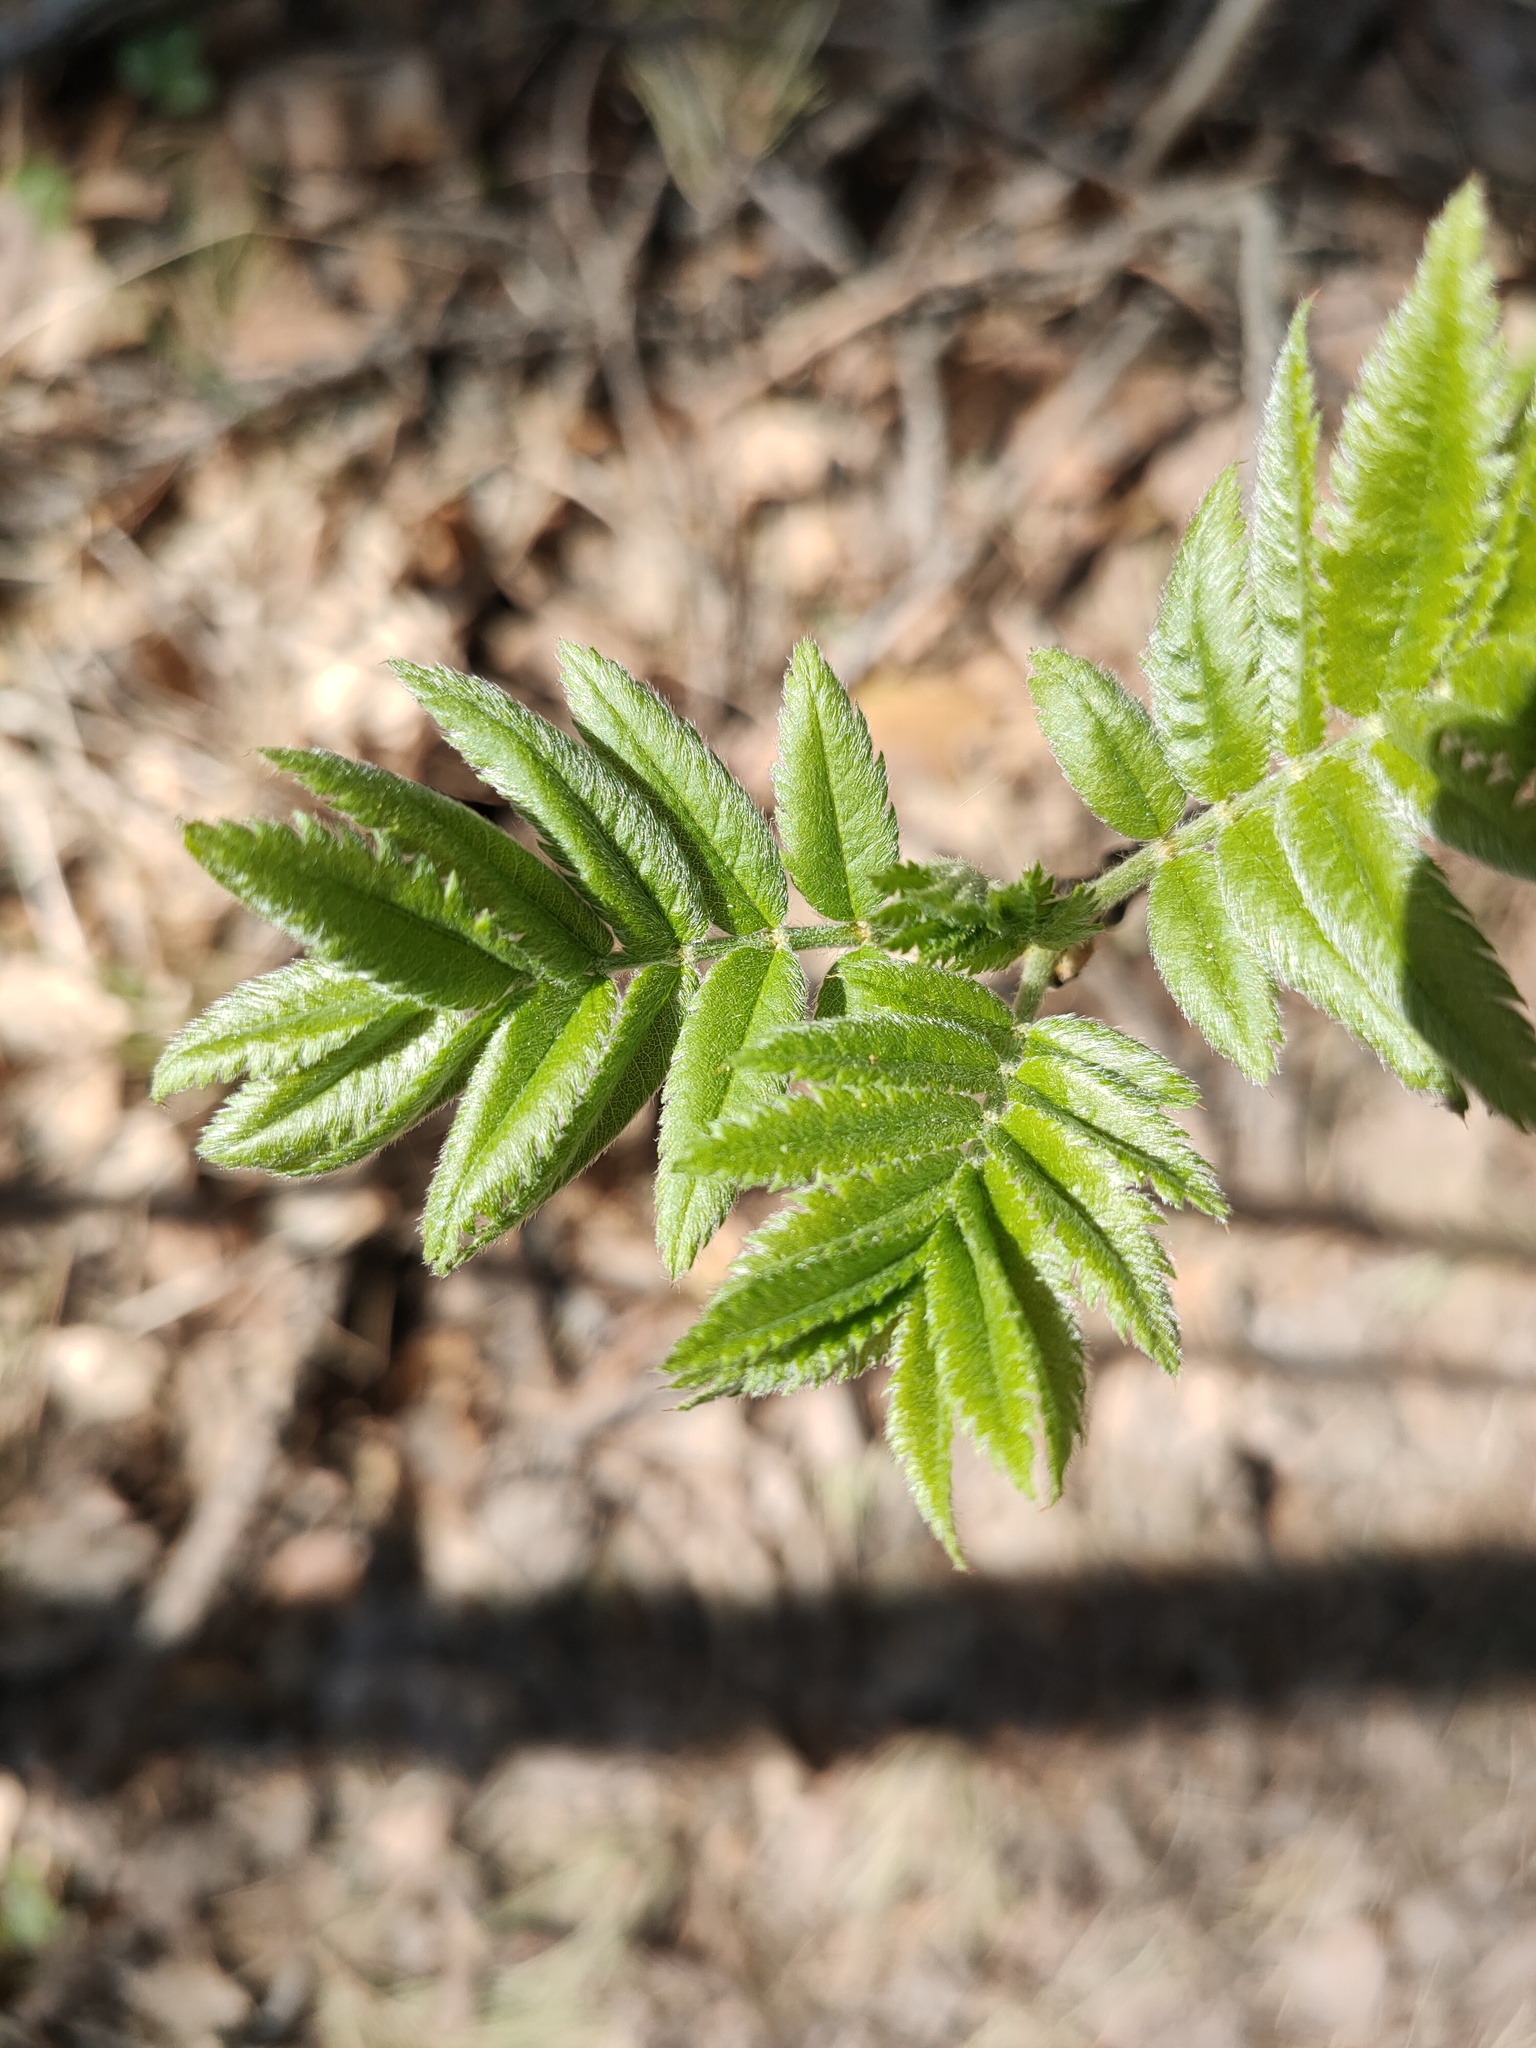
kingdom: Plantae
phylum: Tracheophyta
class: Magnoliopsida
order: Rosales
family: Rosaceae
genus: Sorbus
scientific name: Sorbus aucuparia
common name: Rowan
